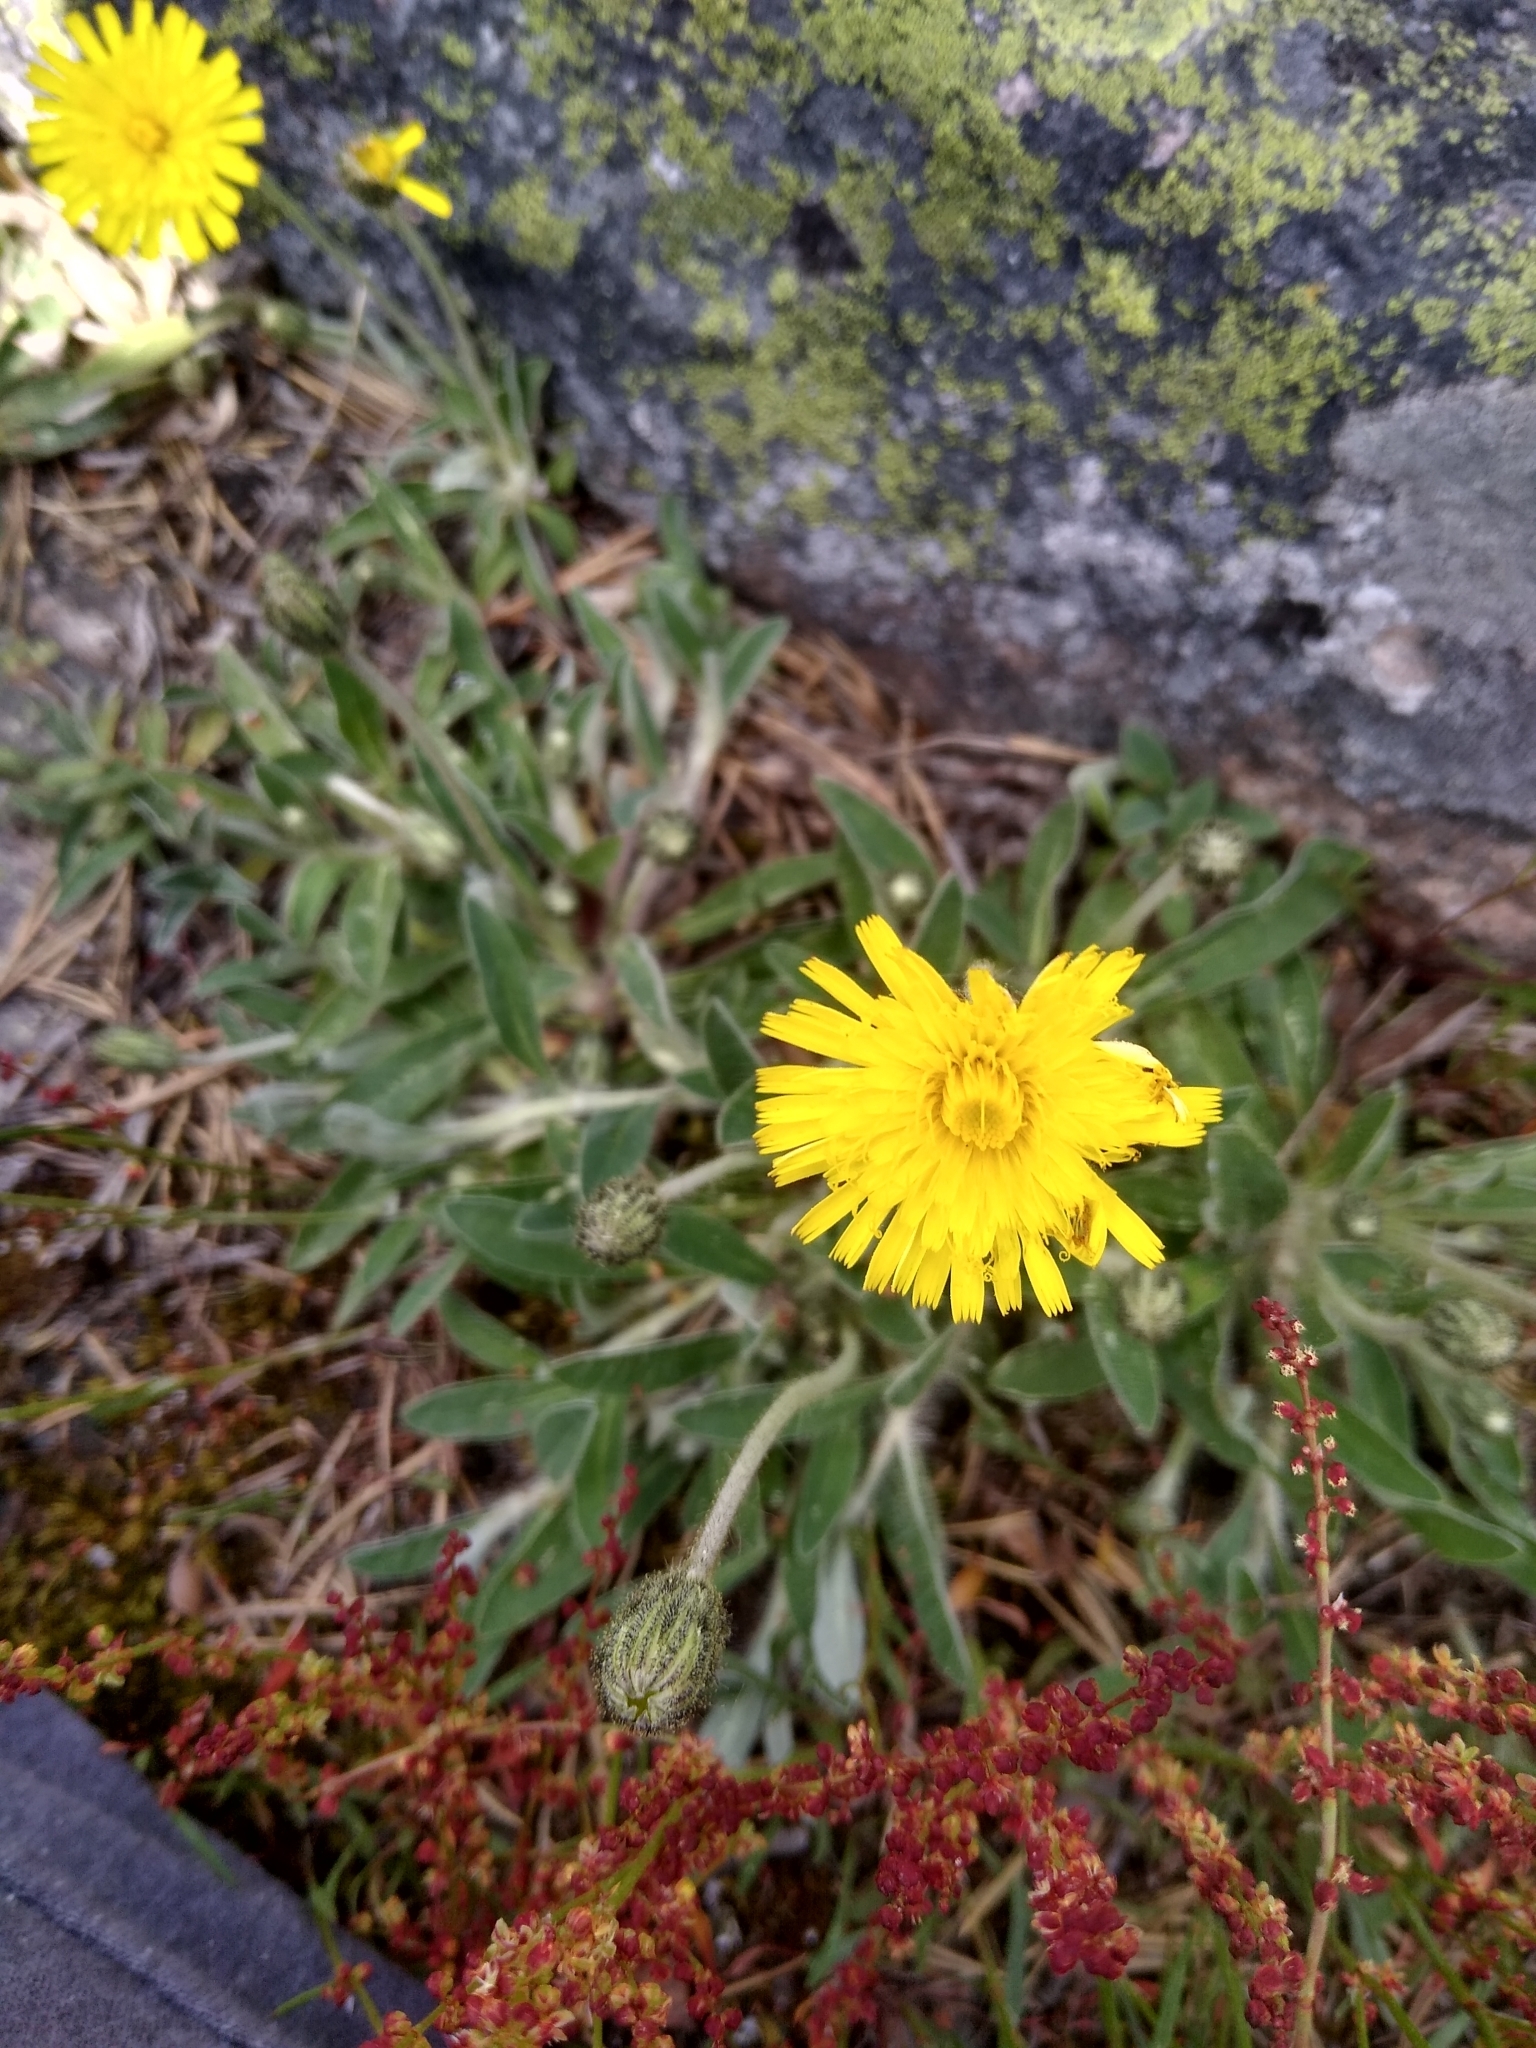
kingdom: Plantae
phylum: Tracheophyta
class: Magnoliopsida
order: Asterales
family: Asteraceae
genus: Pilosella
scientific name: Pilosella officinarum
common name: Mouse-ear hawkweed
